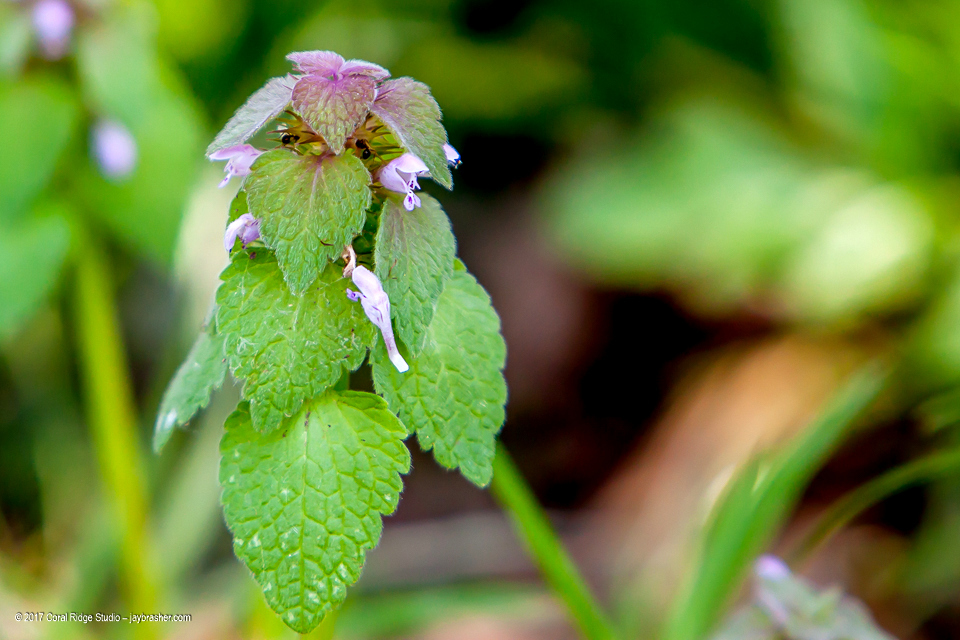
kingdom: Plantae
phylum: Tracheophyta
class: Magnoliopsida
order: Lamiales
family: Lamiaceae
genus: Lamium
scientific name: Lamium purpureum
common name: Red dead-nettle
